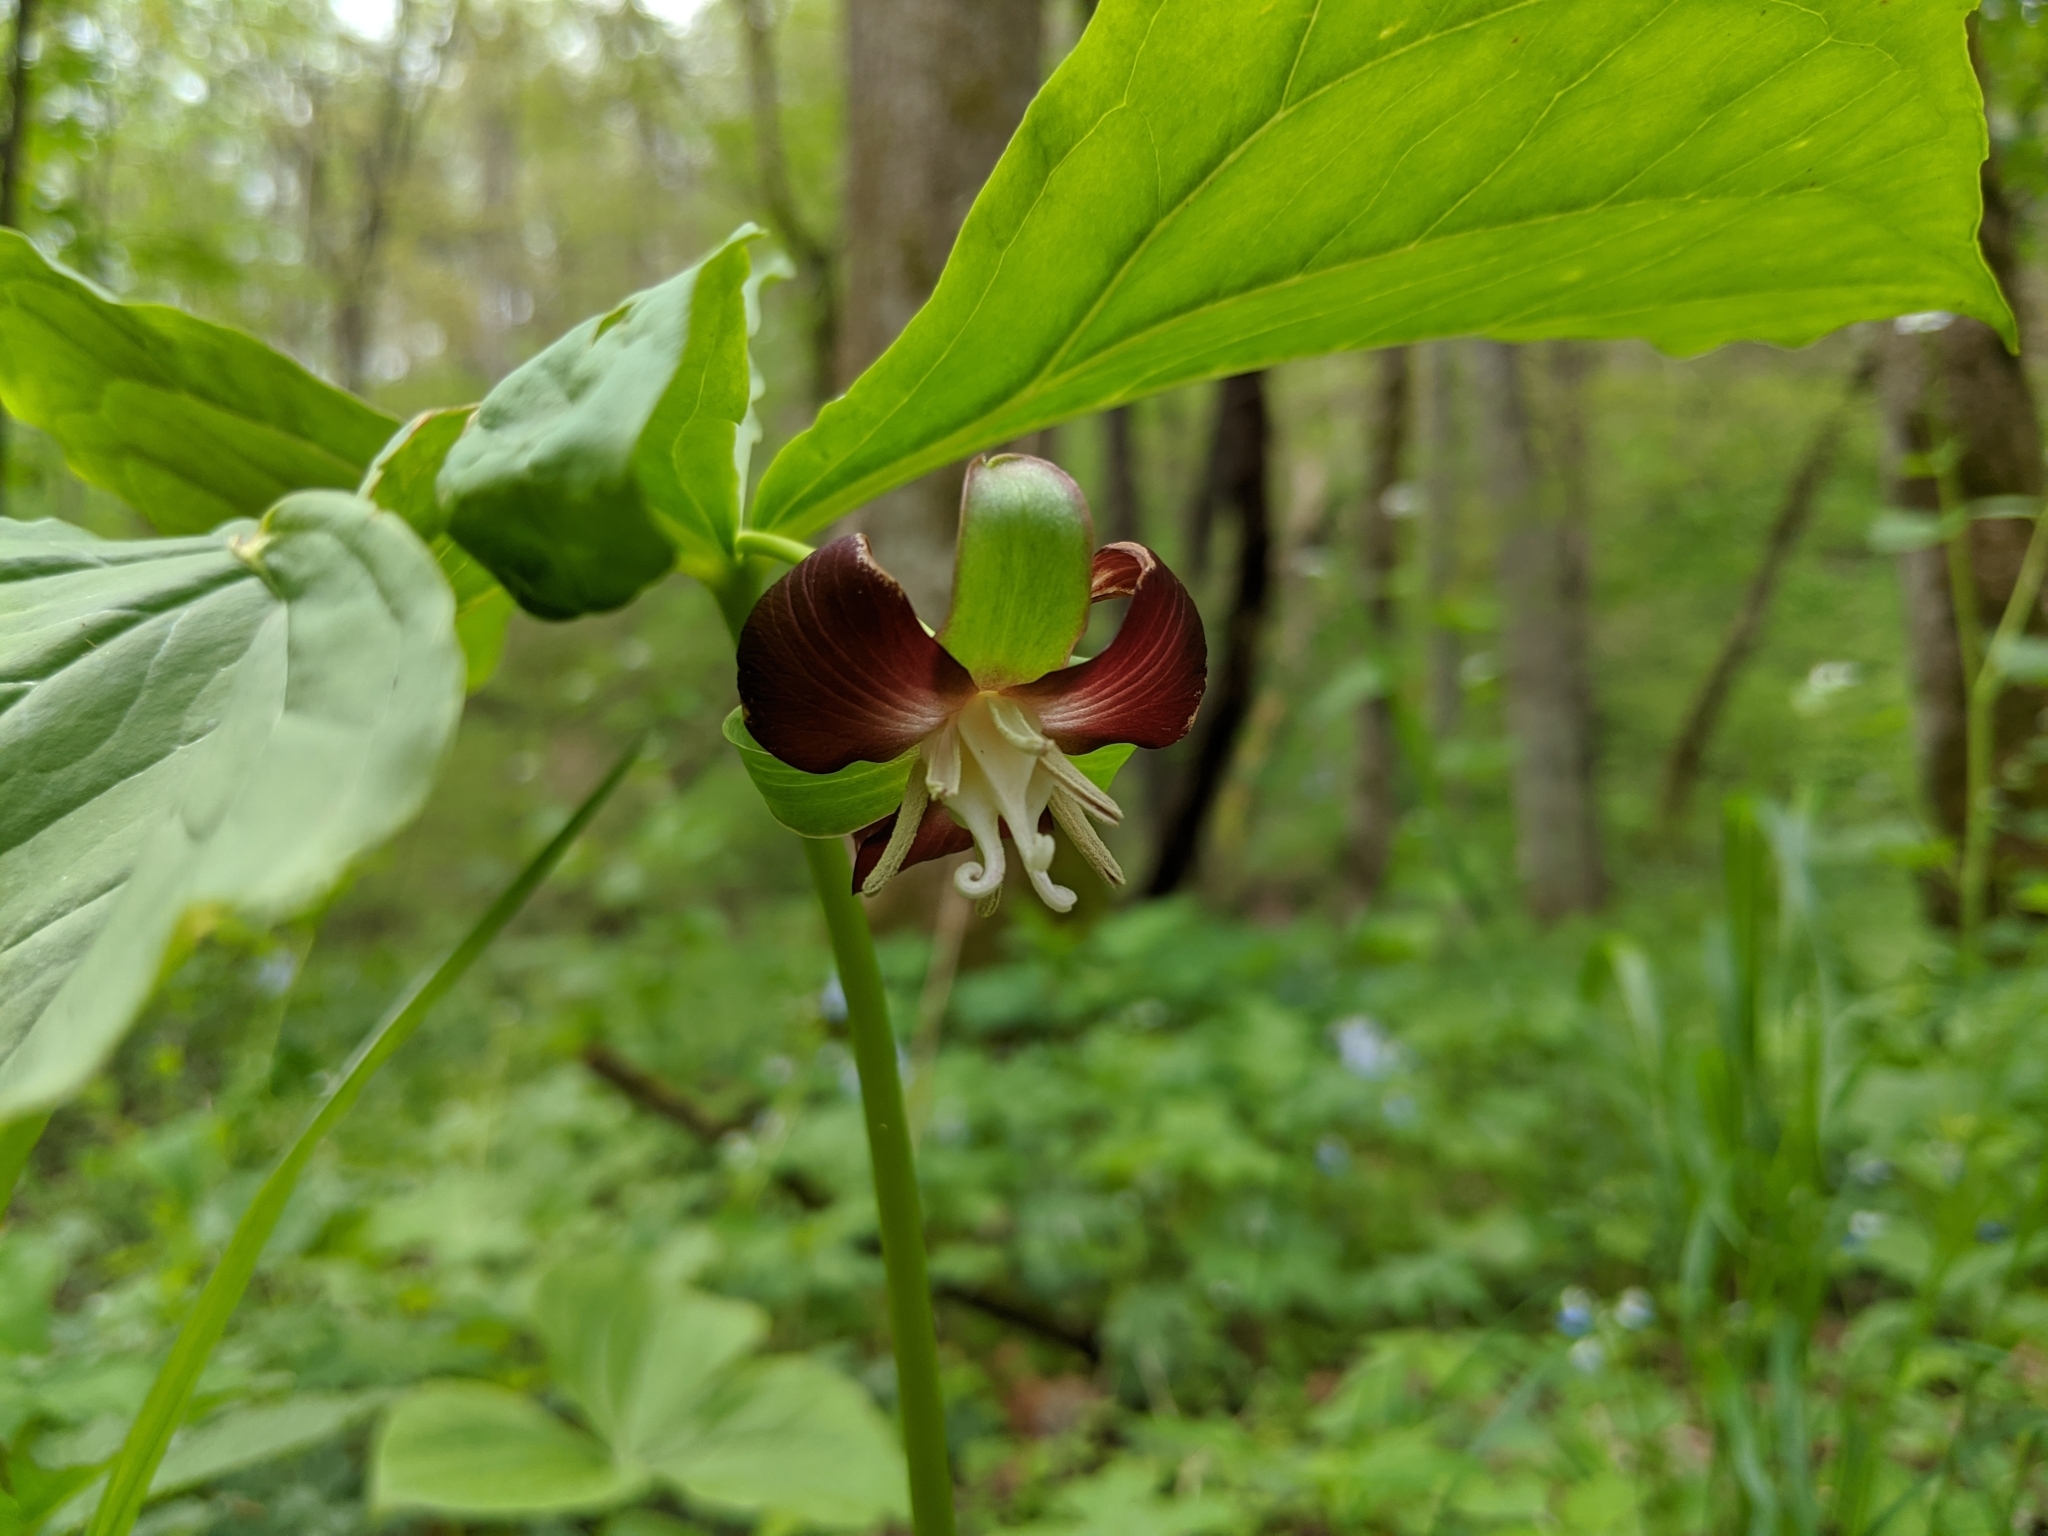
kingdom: Plantae
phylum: Tracheophyta
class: Liliopsida
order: Liliales
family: Melanthiaceae
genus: Trillium
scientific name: Trillium flexipes
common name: Drooping trillium
